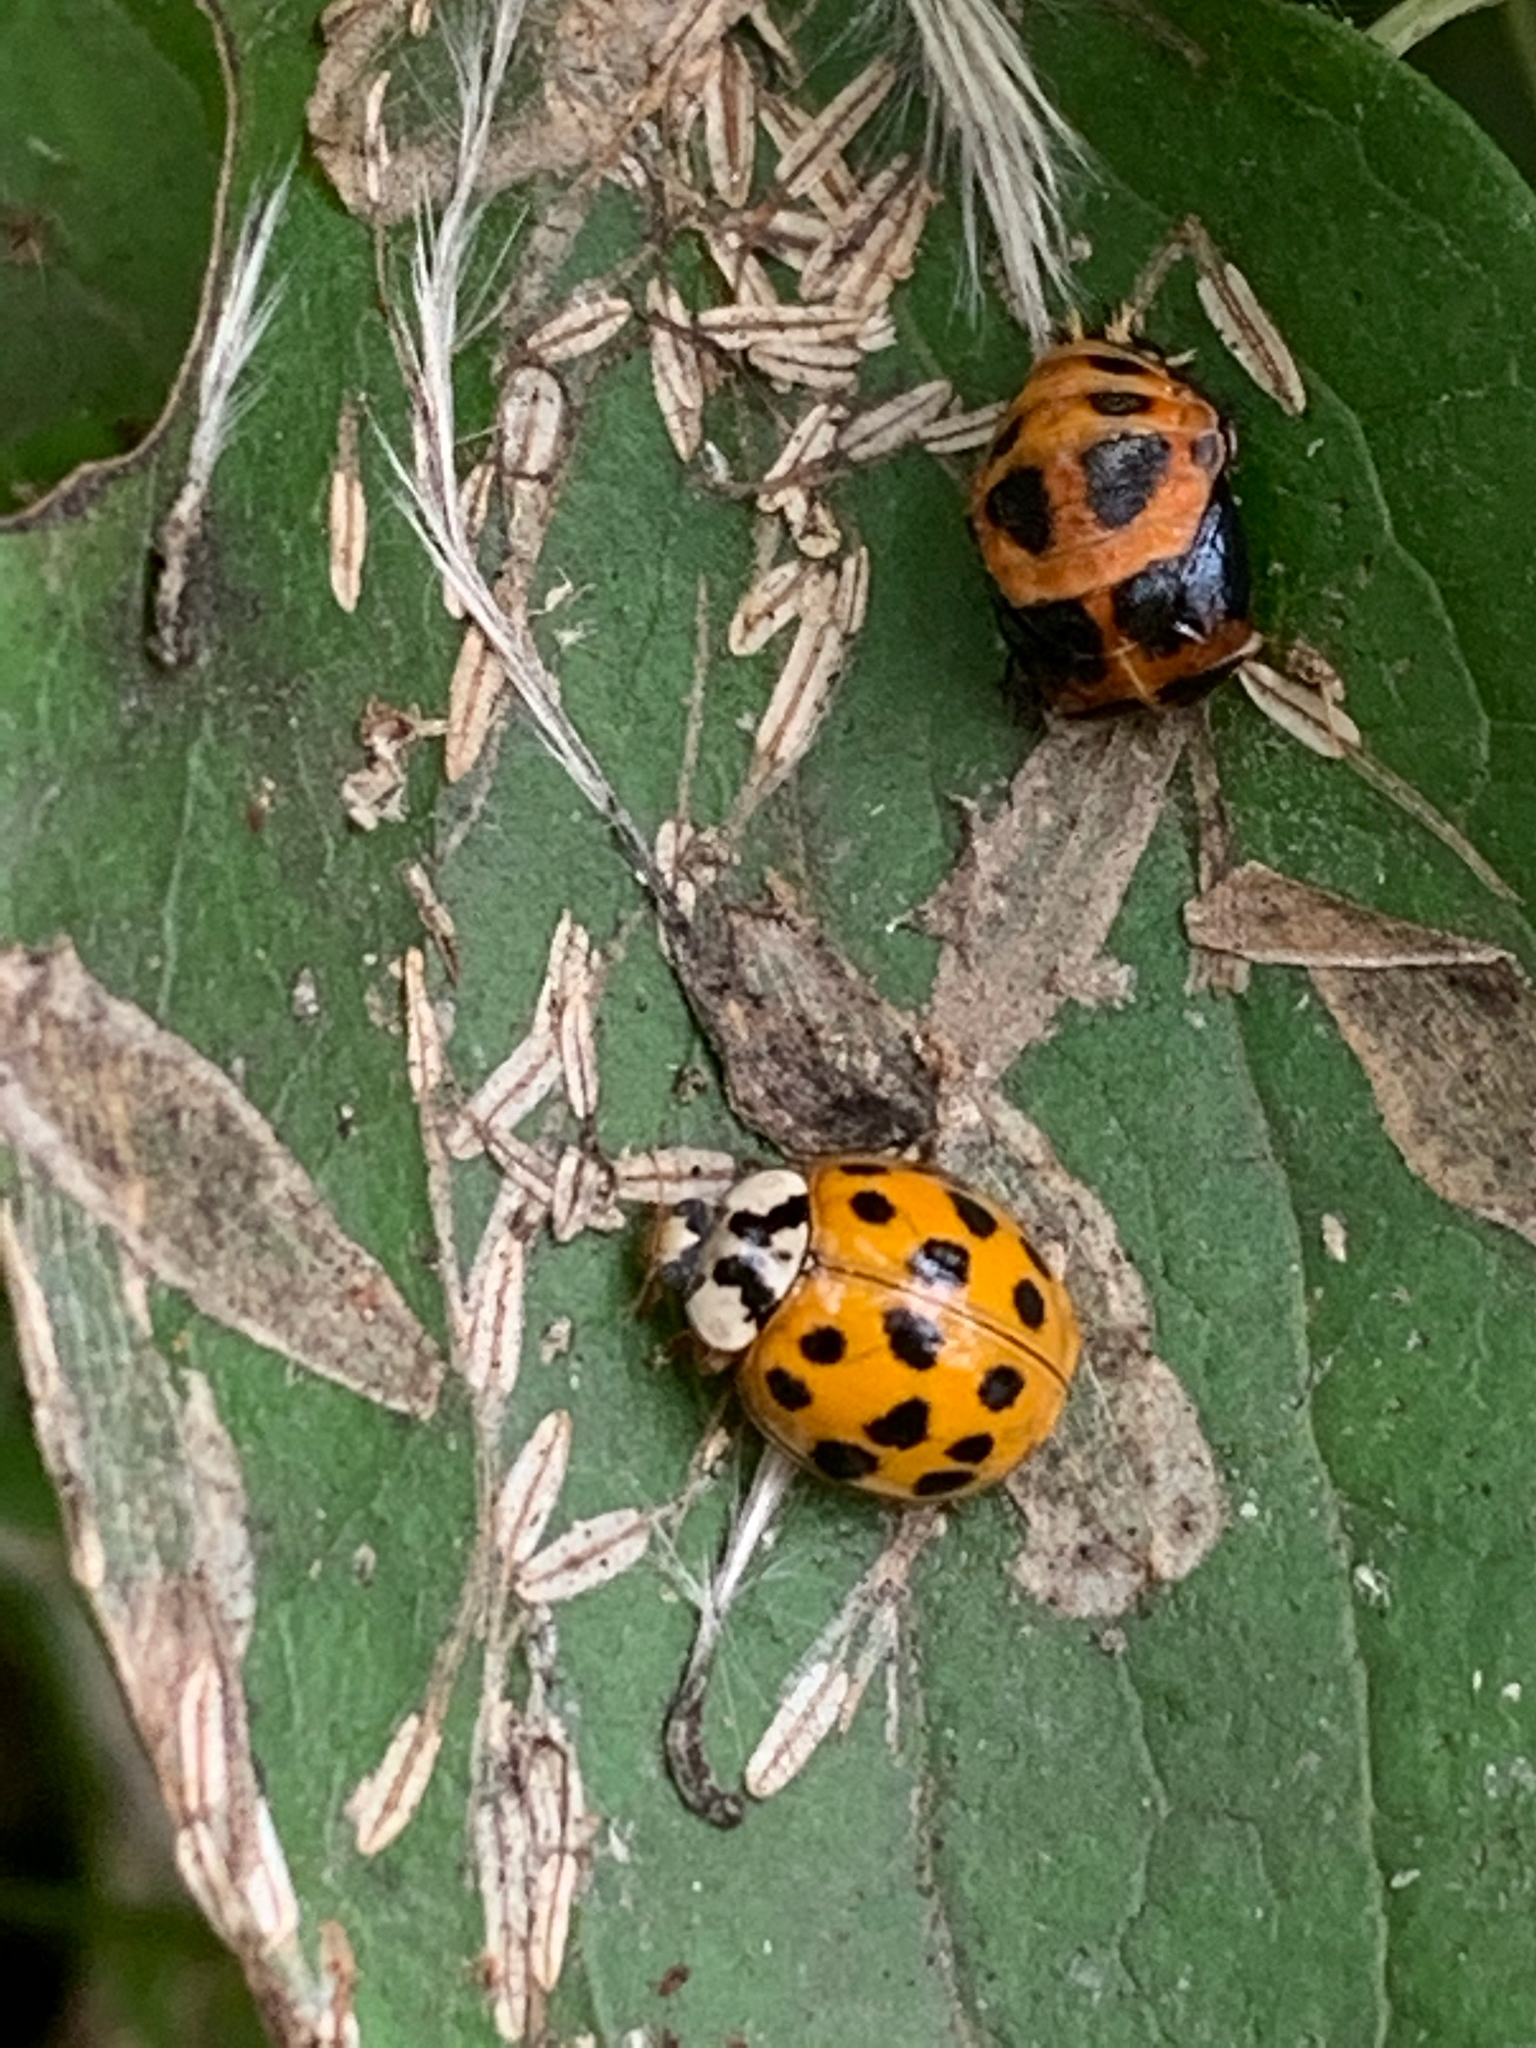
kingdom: Animalia
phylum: Arthropoda
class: Insecta
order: Coleoptera
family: Coccinellidae
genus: Harmonia
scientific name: Harmonia axyridis
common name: Harlequin ladybird
